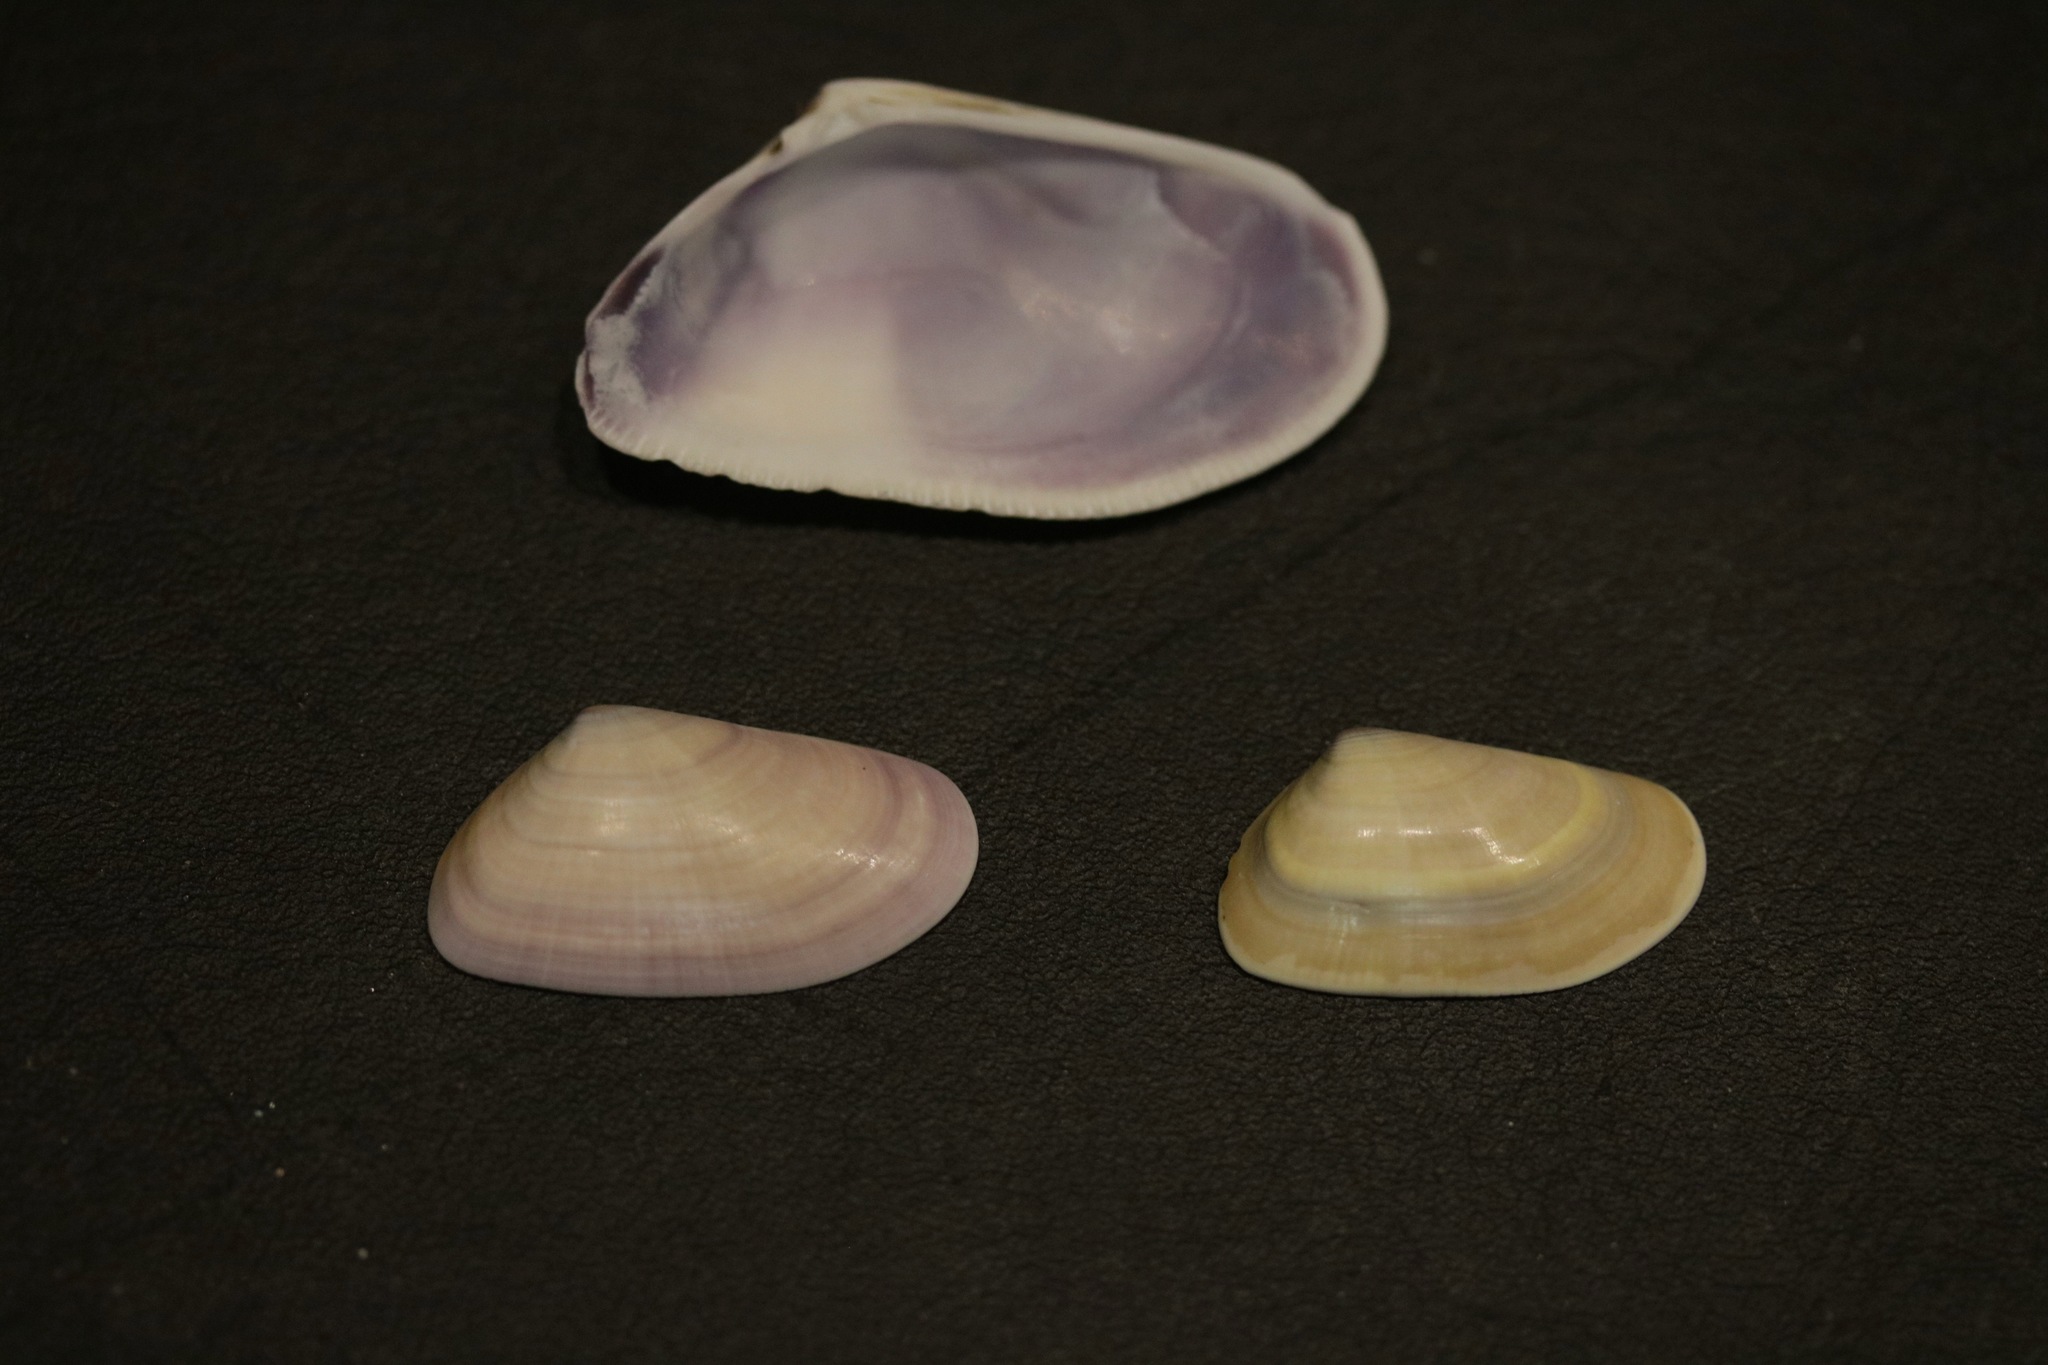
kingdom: Animalia
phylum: Mollusca
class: Bivalvia
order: Cardiida
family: Donacidae
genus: Donax
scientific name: Donax trunculus
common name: Truncate donax
